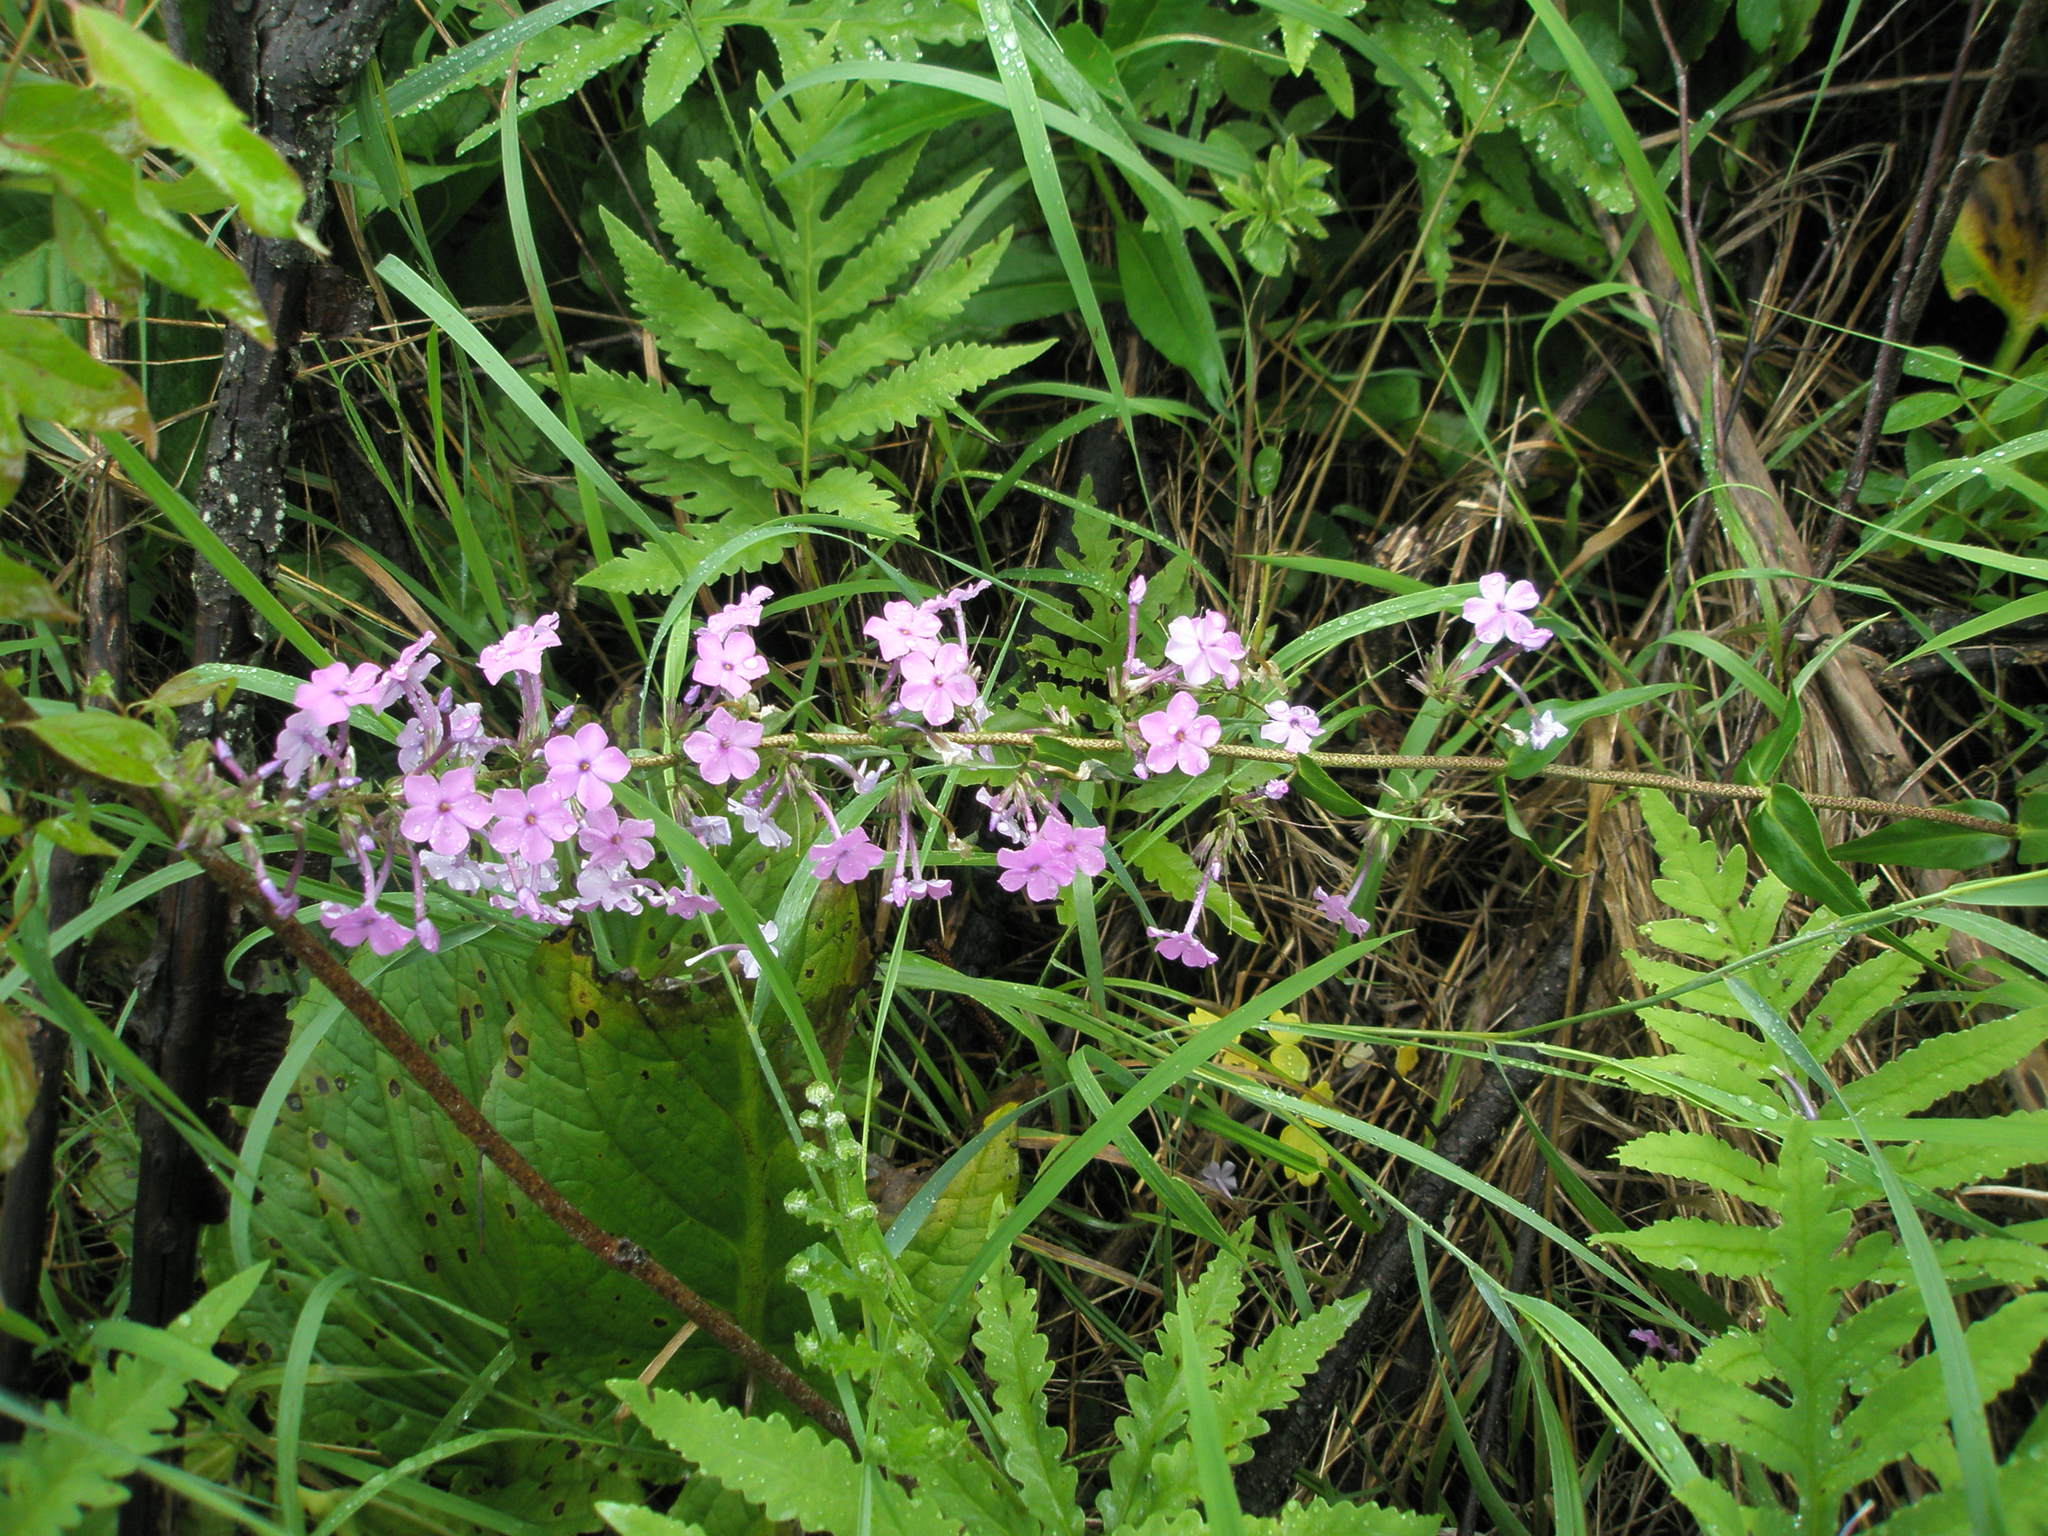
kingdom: Plantae
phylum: Tracheophyta
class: Magnoliopsida
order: Ericales
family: Polemoniaceae
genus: Phlox
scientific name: Phlox maculata
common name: Meadow phlox
